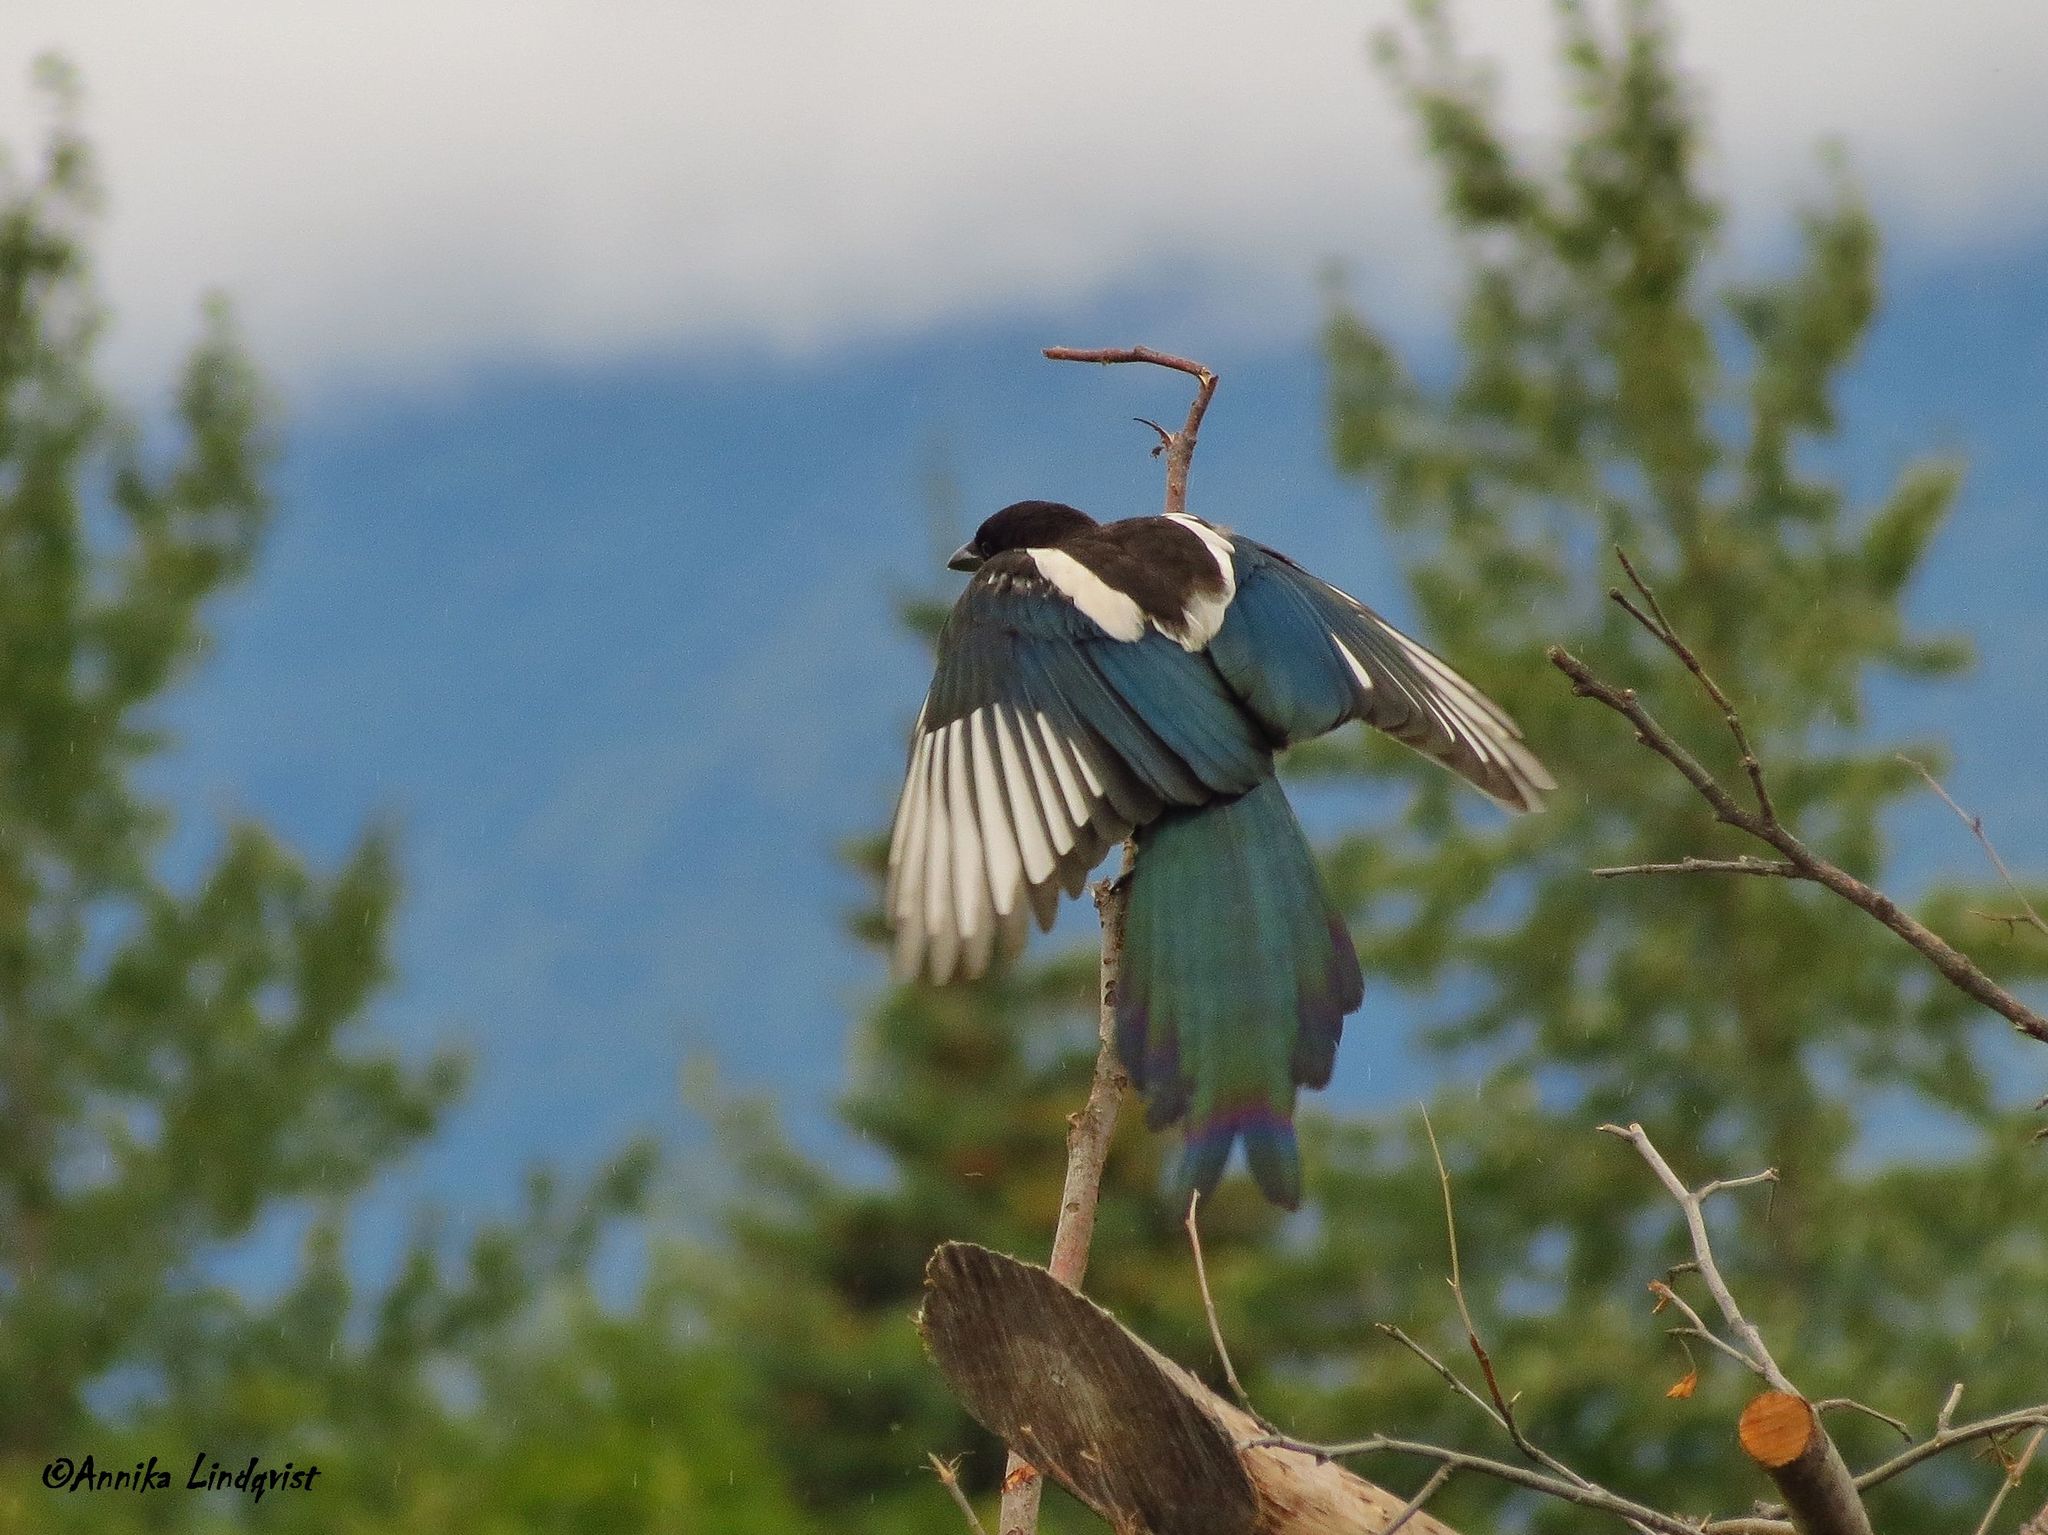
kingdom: Animalia
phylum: Chordata
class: Aves
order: Passeriformes
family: Corvidae
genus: Pica
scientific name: Pica hudsonia
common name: Black-billed magpie
